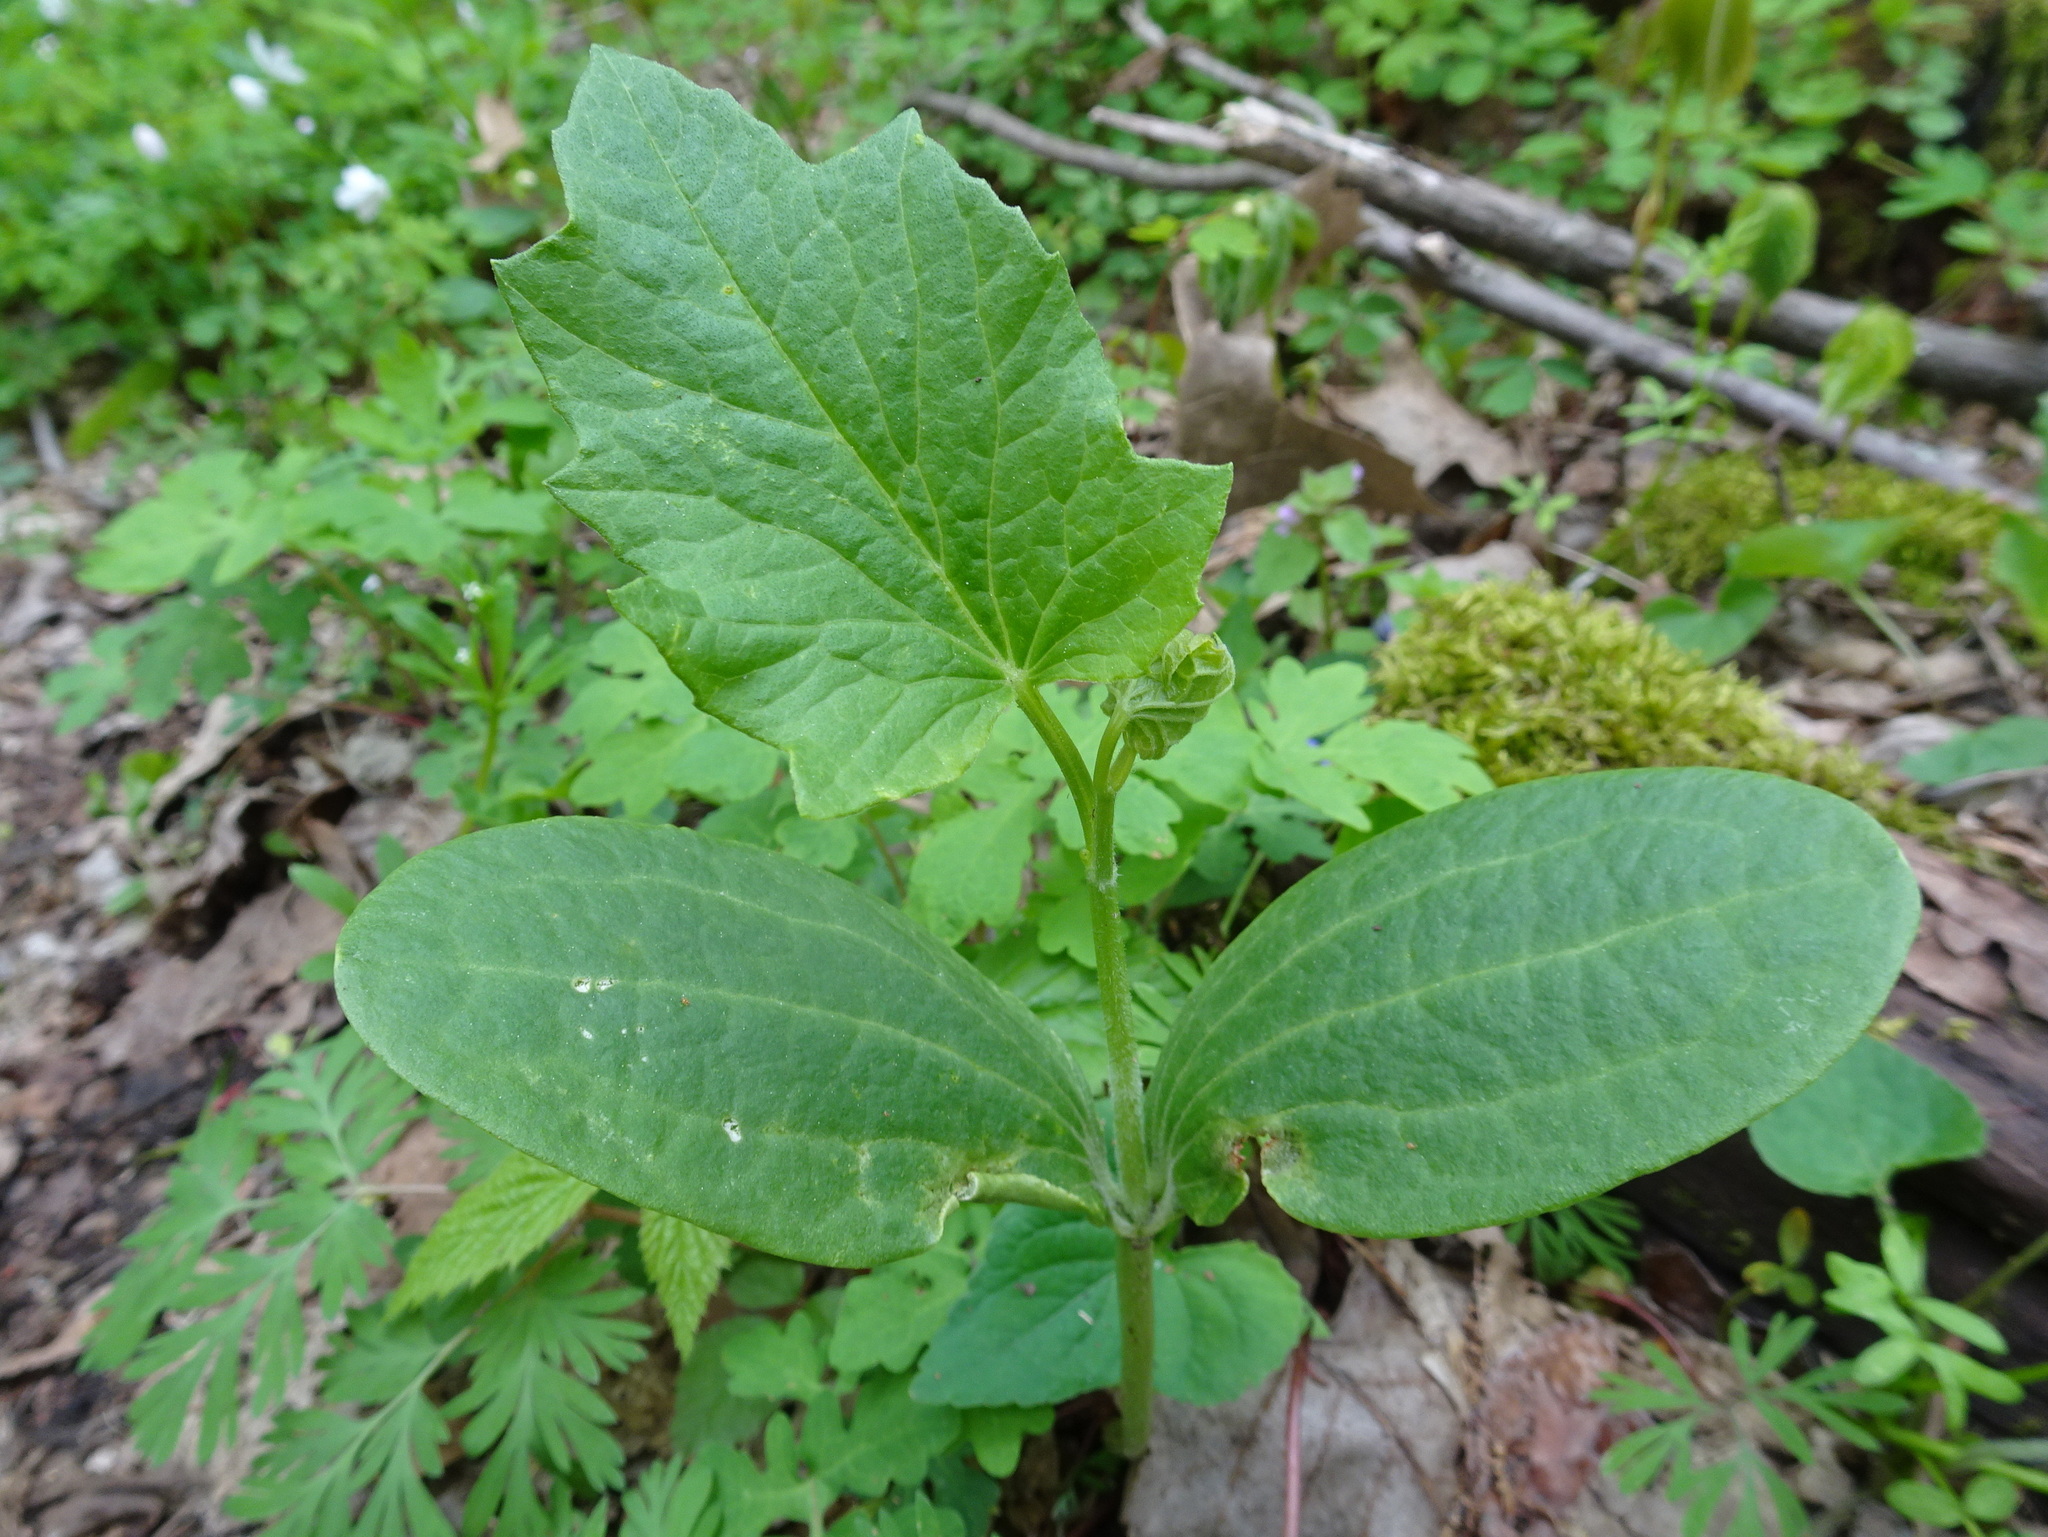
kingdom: Plantae
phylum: Tracheophyta
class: Magnoliopsida
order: Cucurbitales
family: Cucurbitaceae
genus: Echinocystis
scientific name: Echinocystis lobata
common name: Wild cucumber
